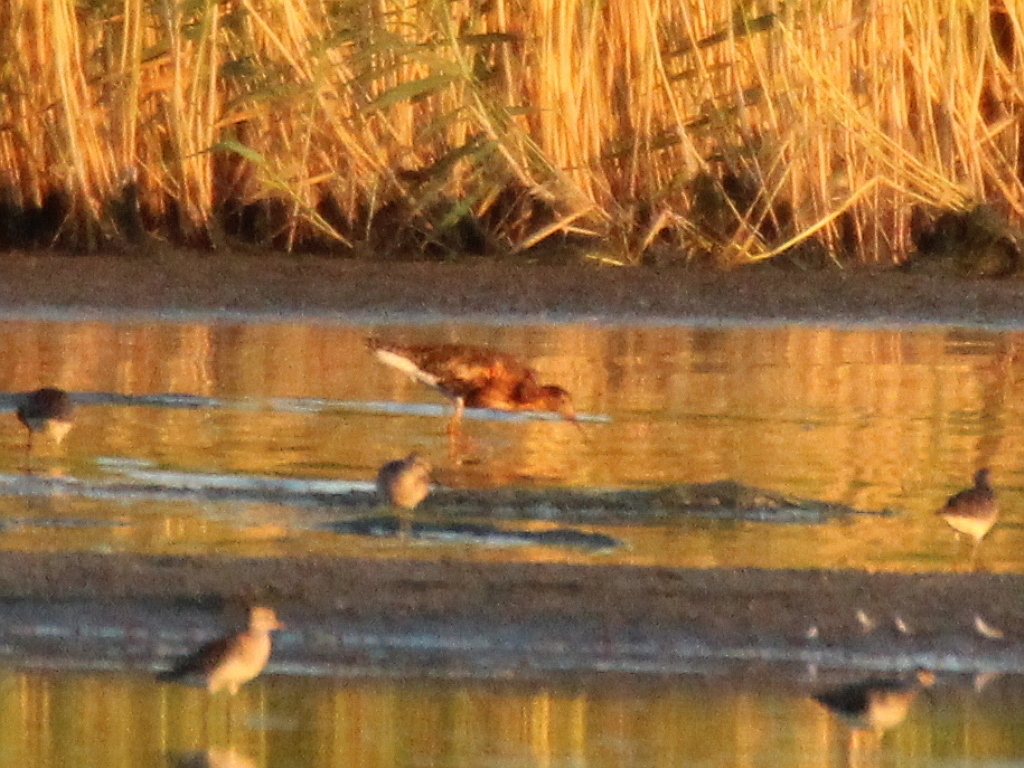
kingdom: Animalia
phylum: Chordata
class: Aves
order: Charadriiformes
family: Scolopacidae
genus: Calidris
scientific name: Calidris pugnax
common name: Ruff
